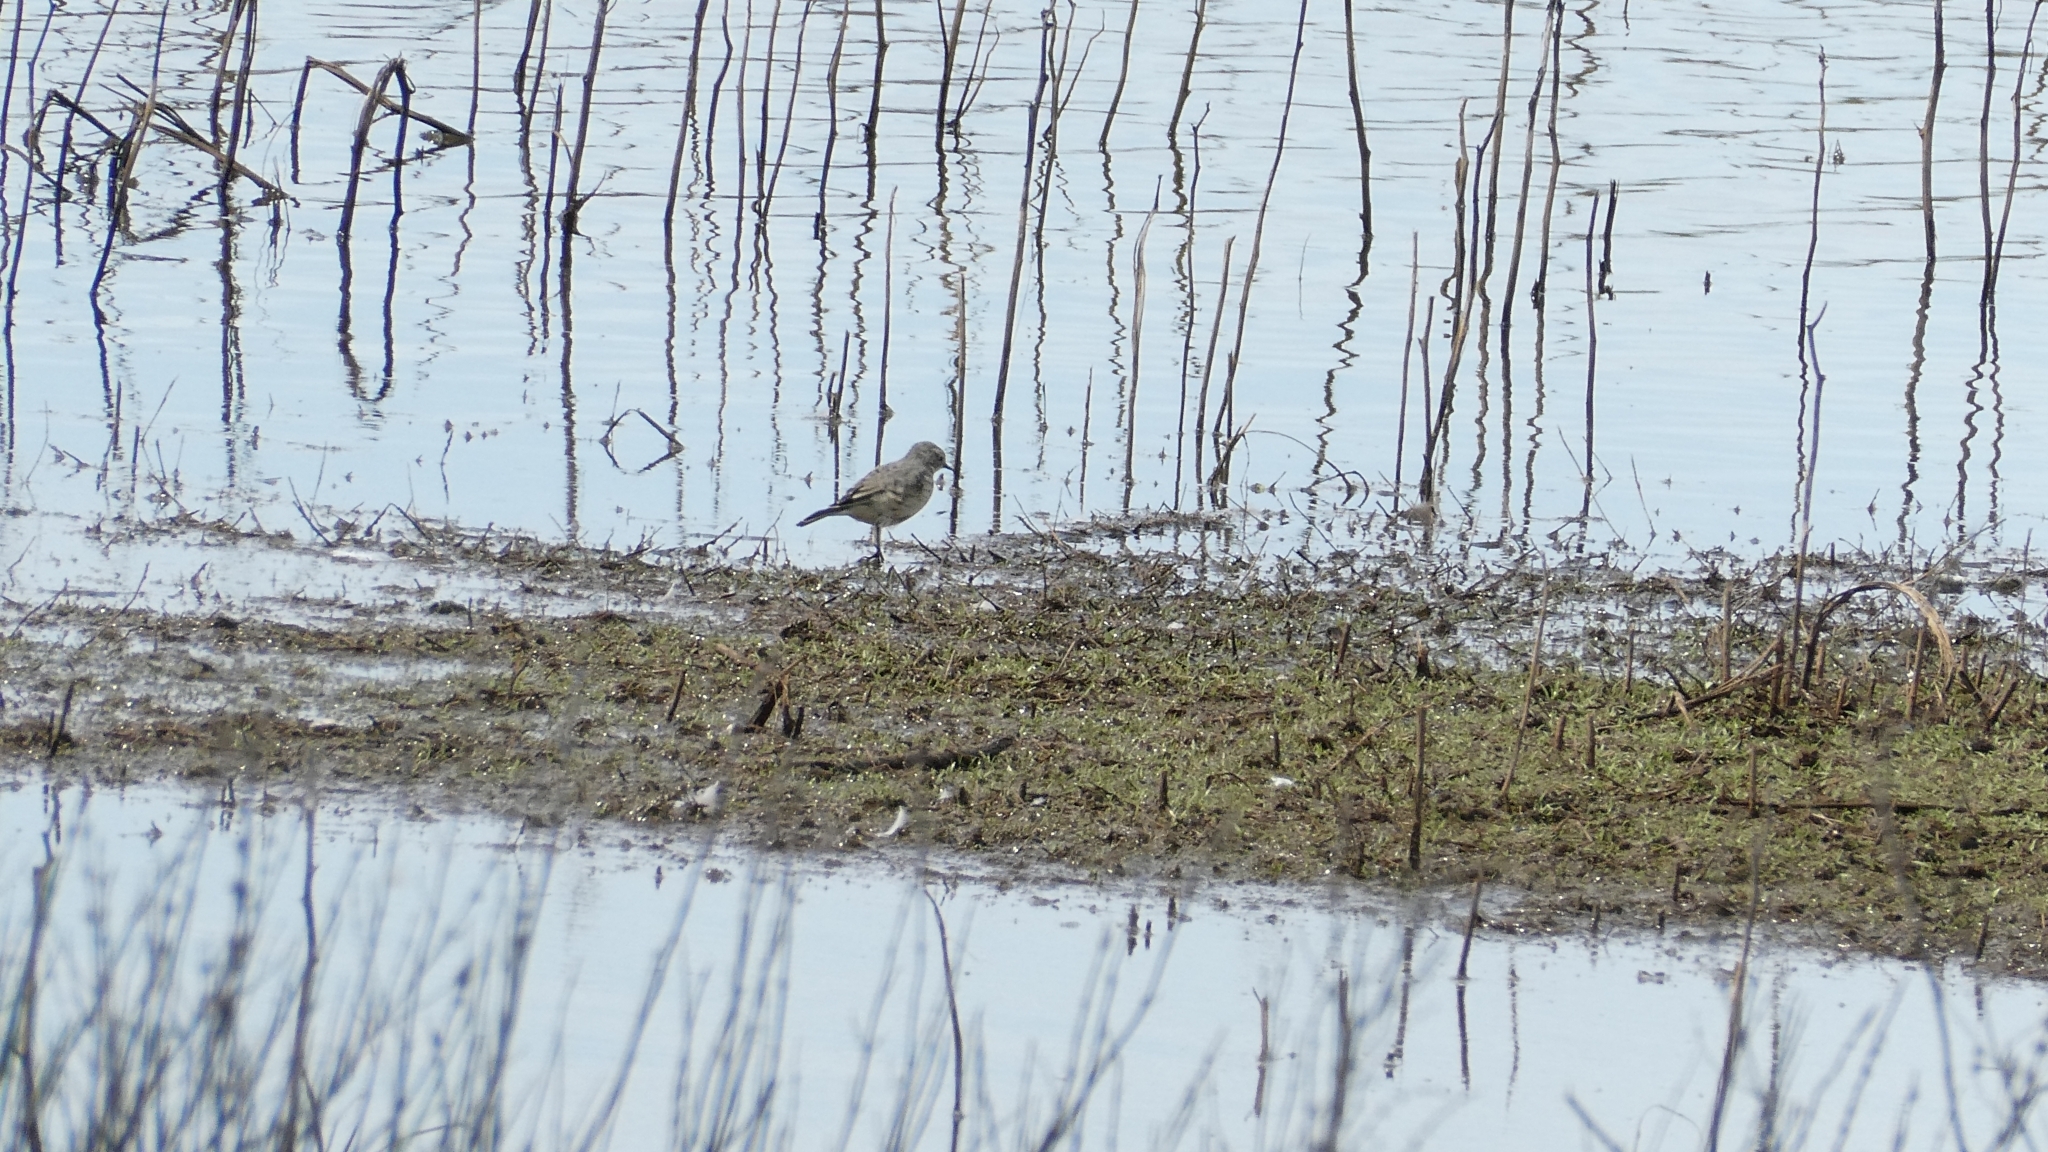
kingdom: Animalia
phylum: Chordata
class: Aves
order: Passeriformes
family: Motacillidae
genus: Anthus
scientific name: Anthus rubescens
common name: Buff-bellied pipit
